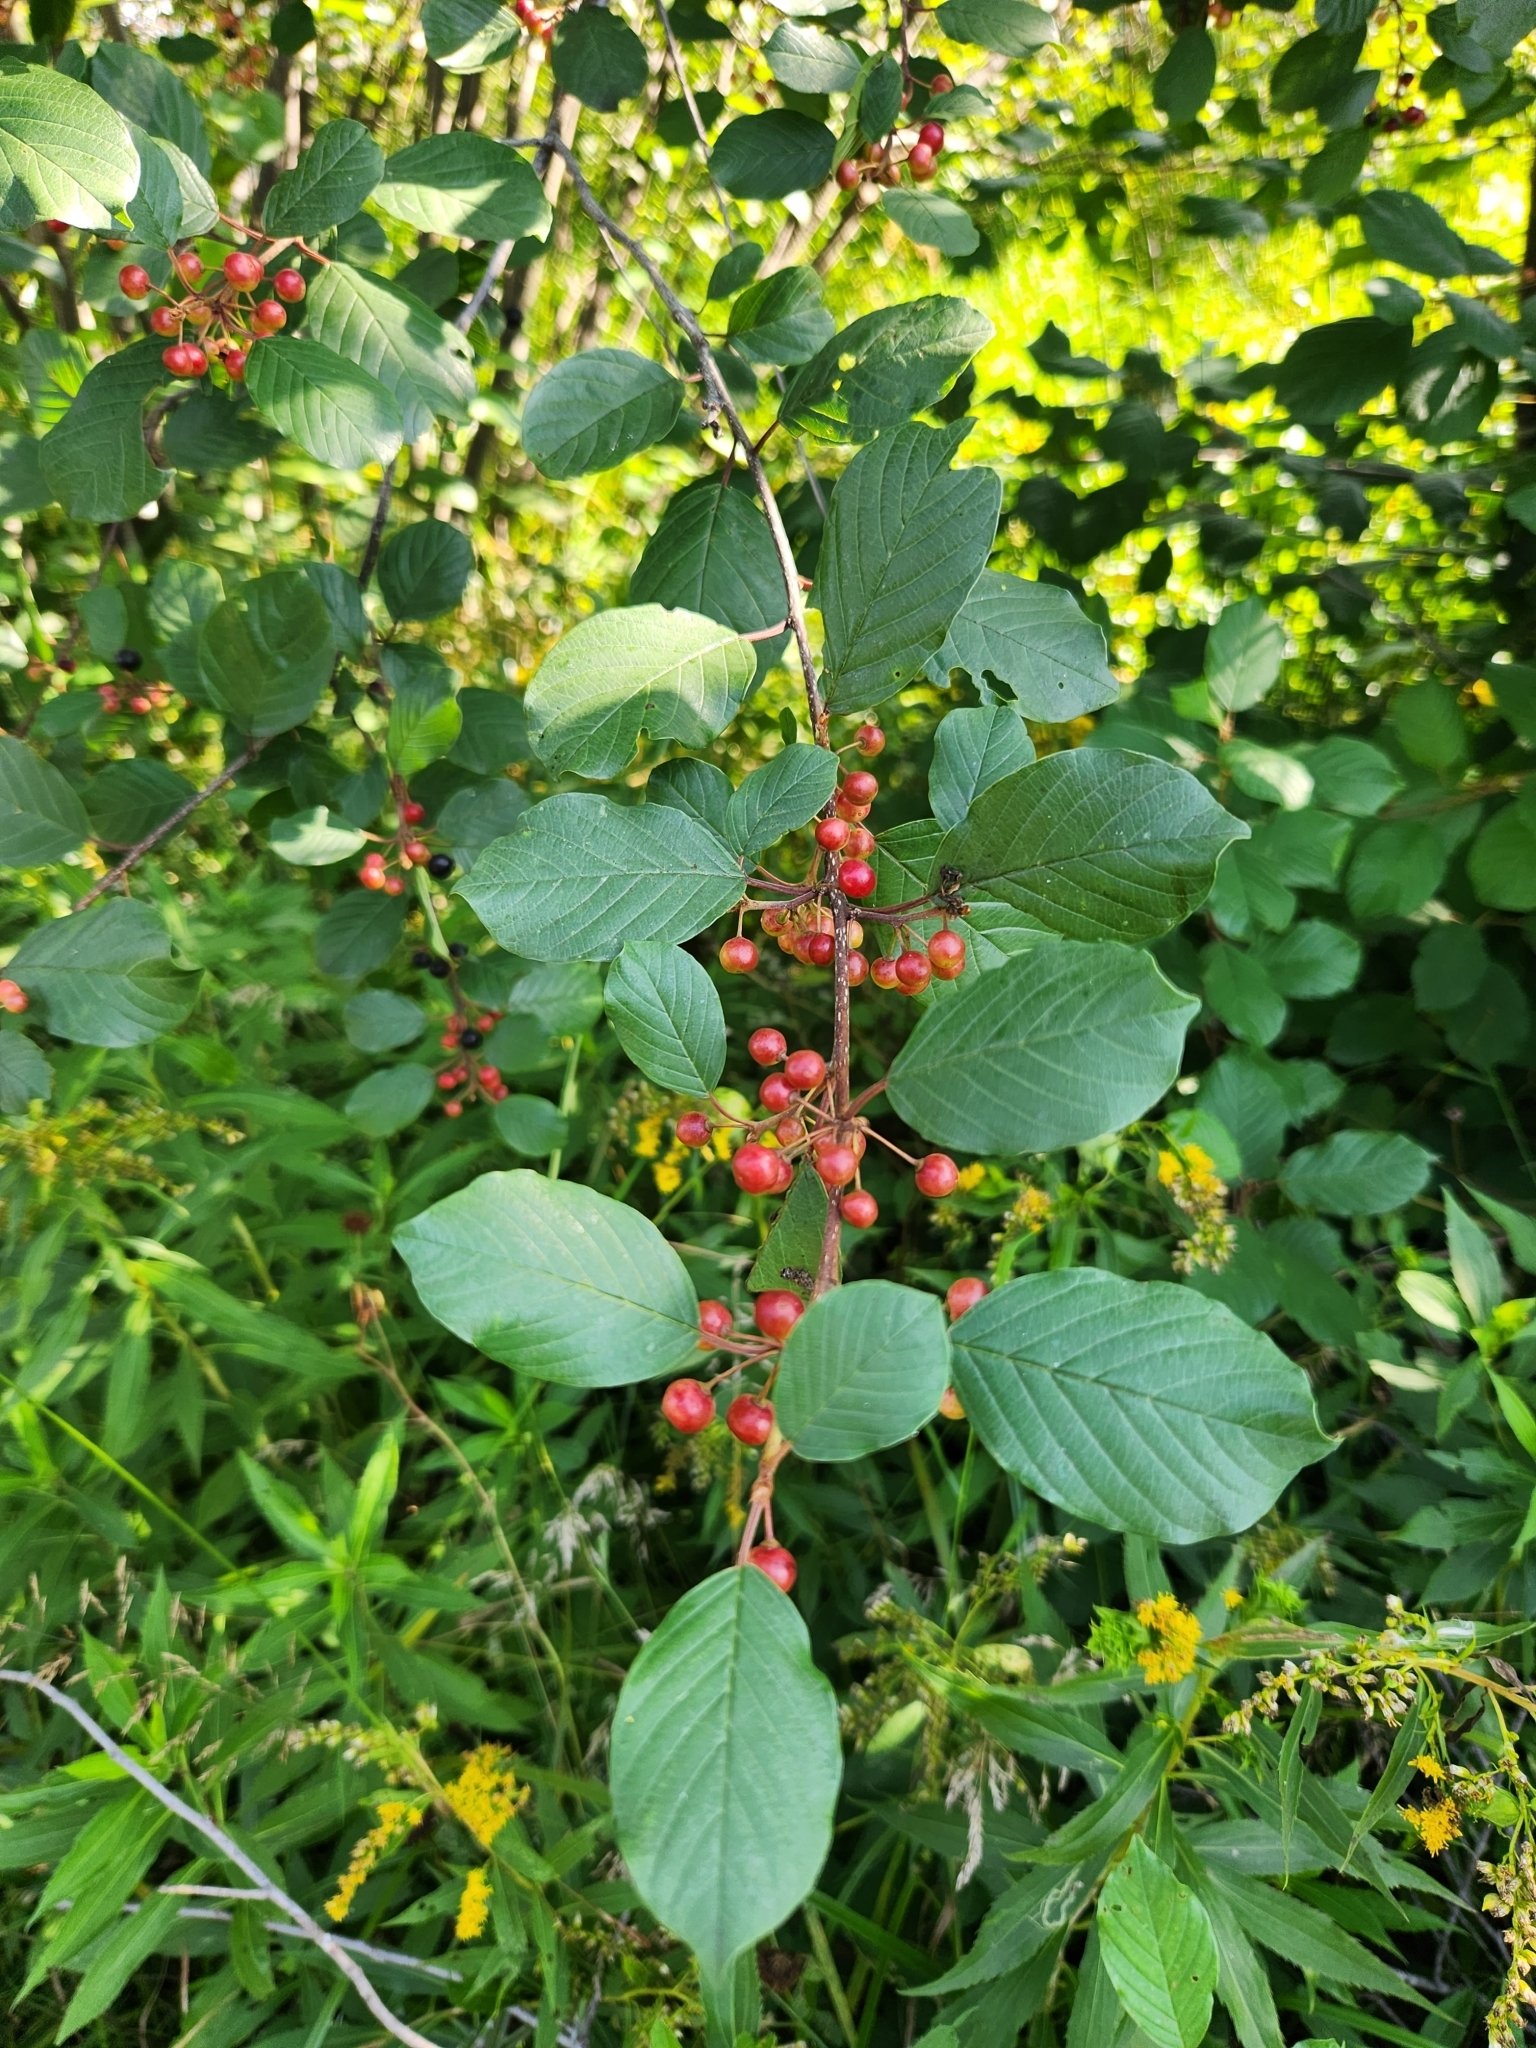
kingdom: Plantae
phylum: Tracheophyta
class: Magnoliopsida
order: Rosales
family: Rhamnaceae
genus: Frangula
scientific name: Frangula alnus
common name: Alder buckthorn
